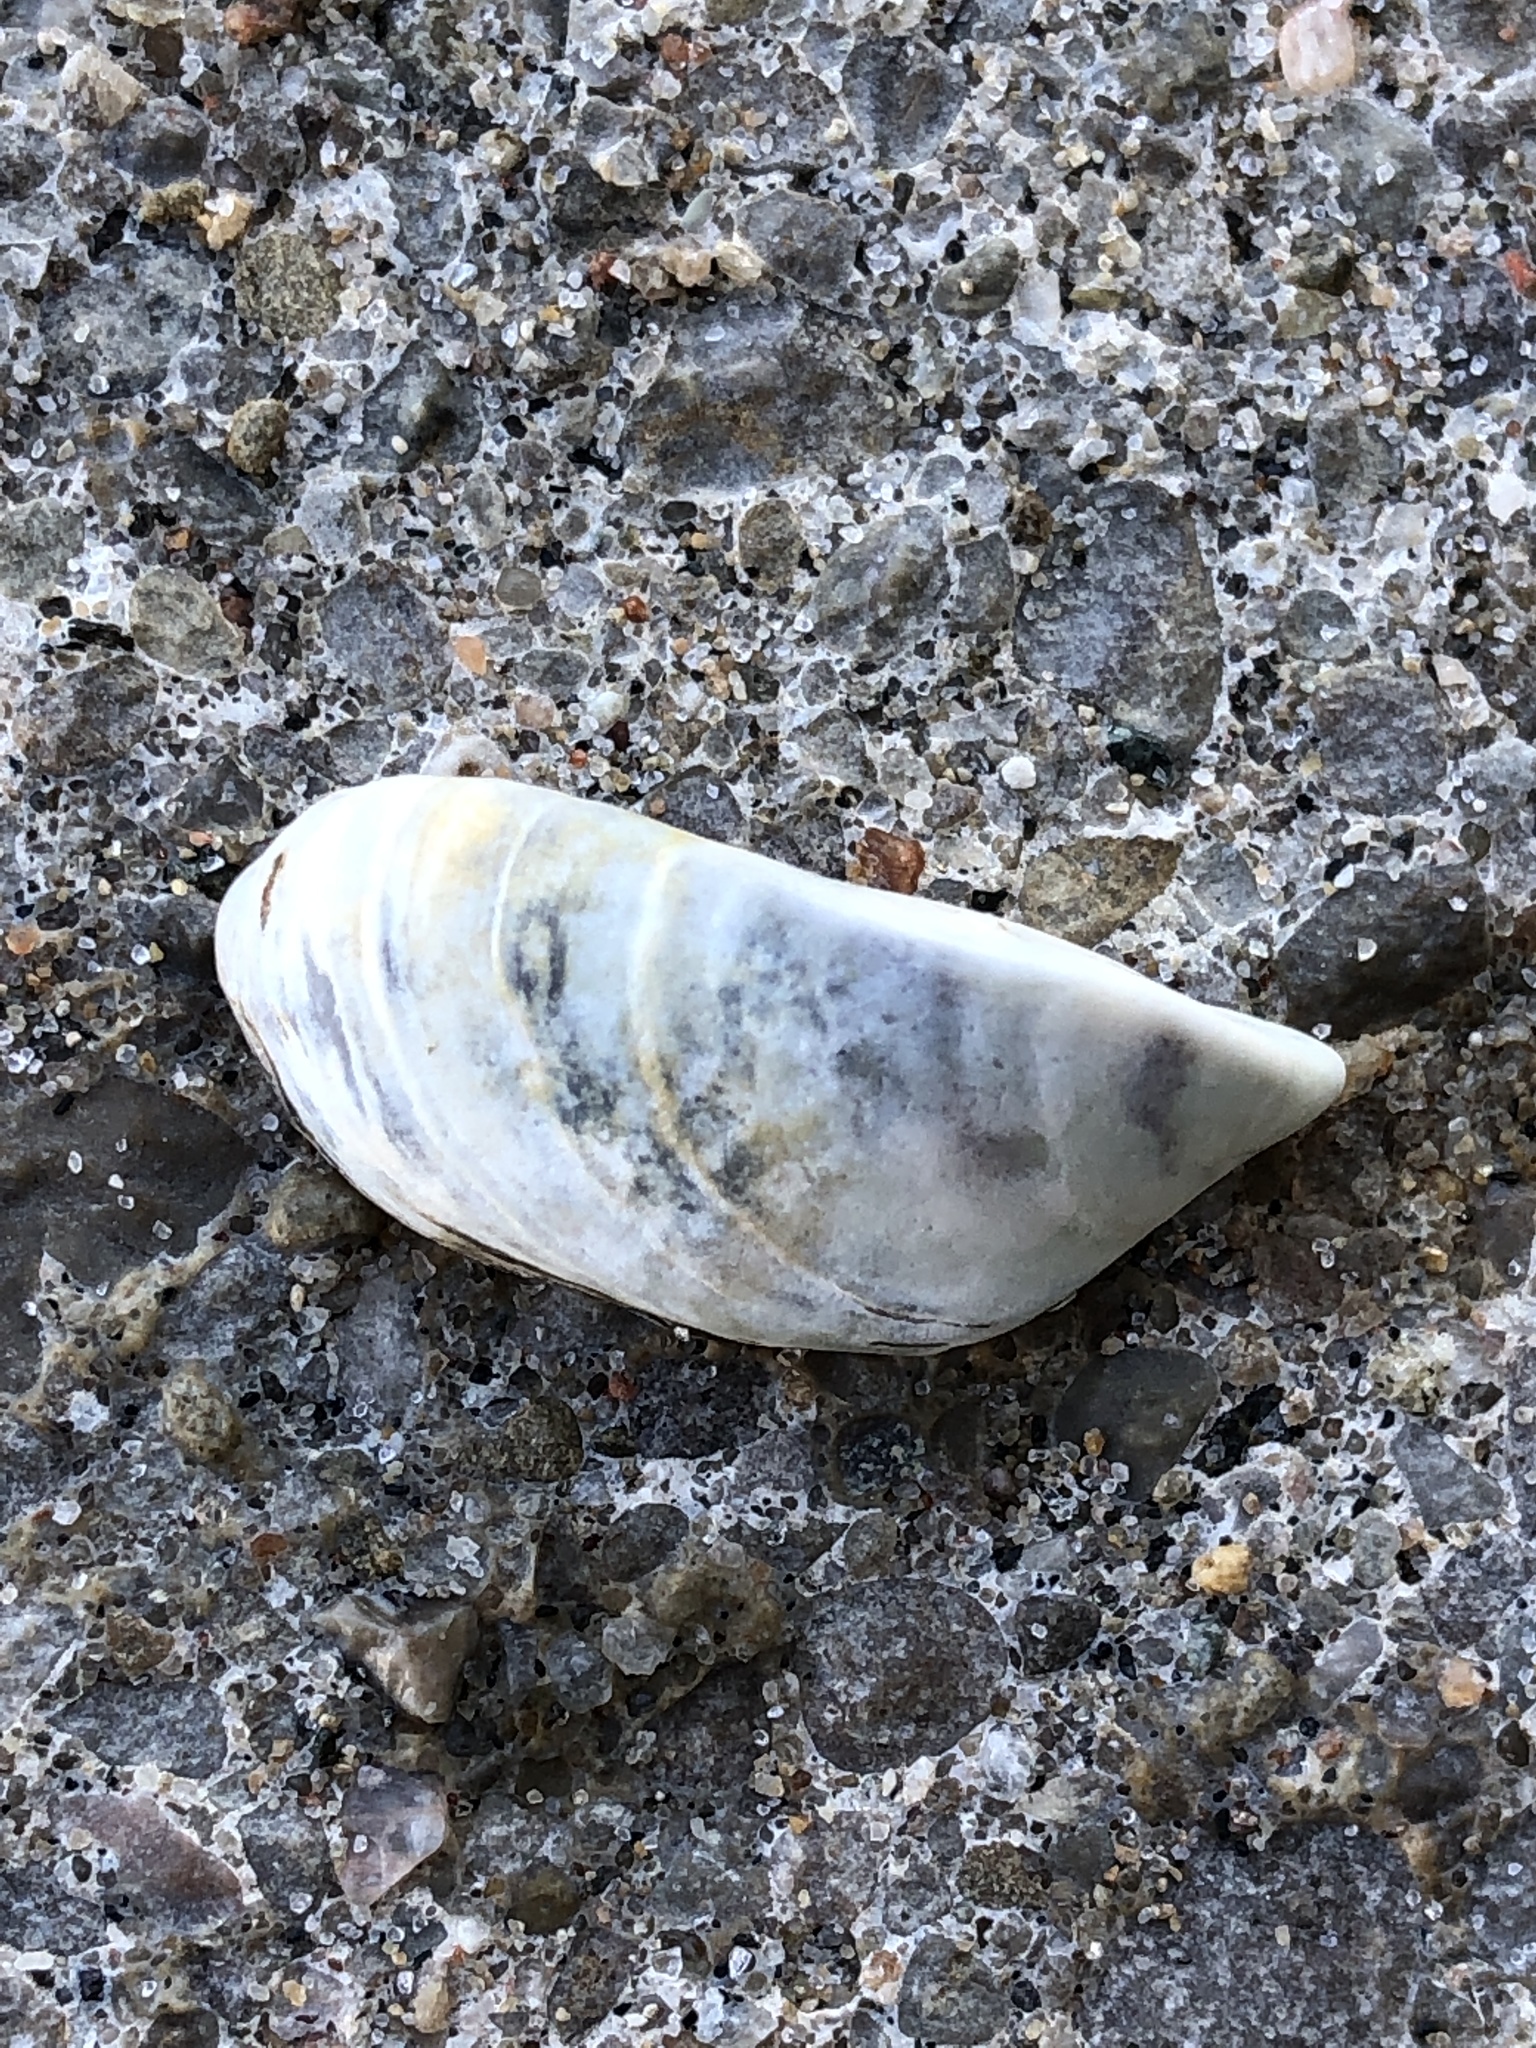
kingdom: Animalia
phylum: Mollusca
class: Bivalvia
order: Myida
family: Dreissenidae
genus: Dreissena
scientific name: Dreissena polymorpha
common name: Zebra mussel
